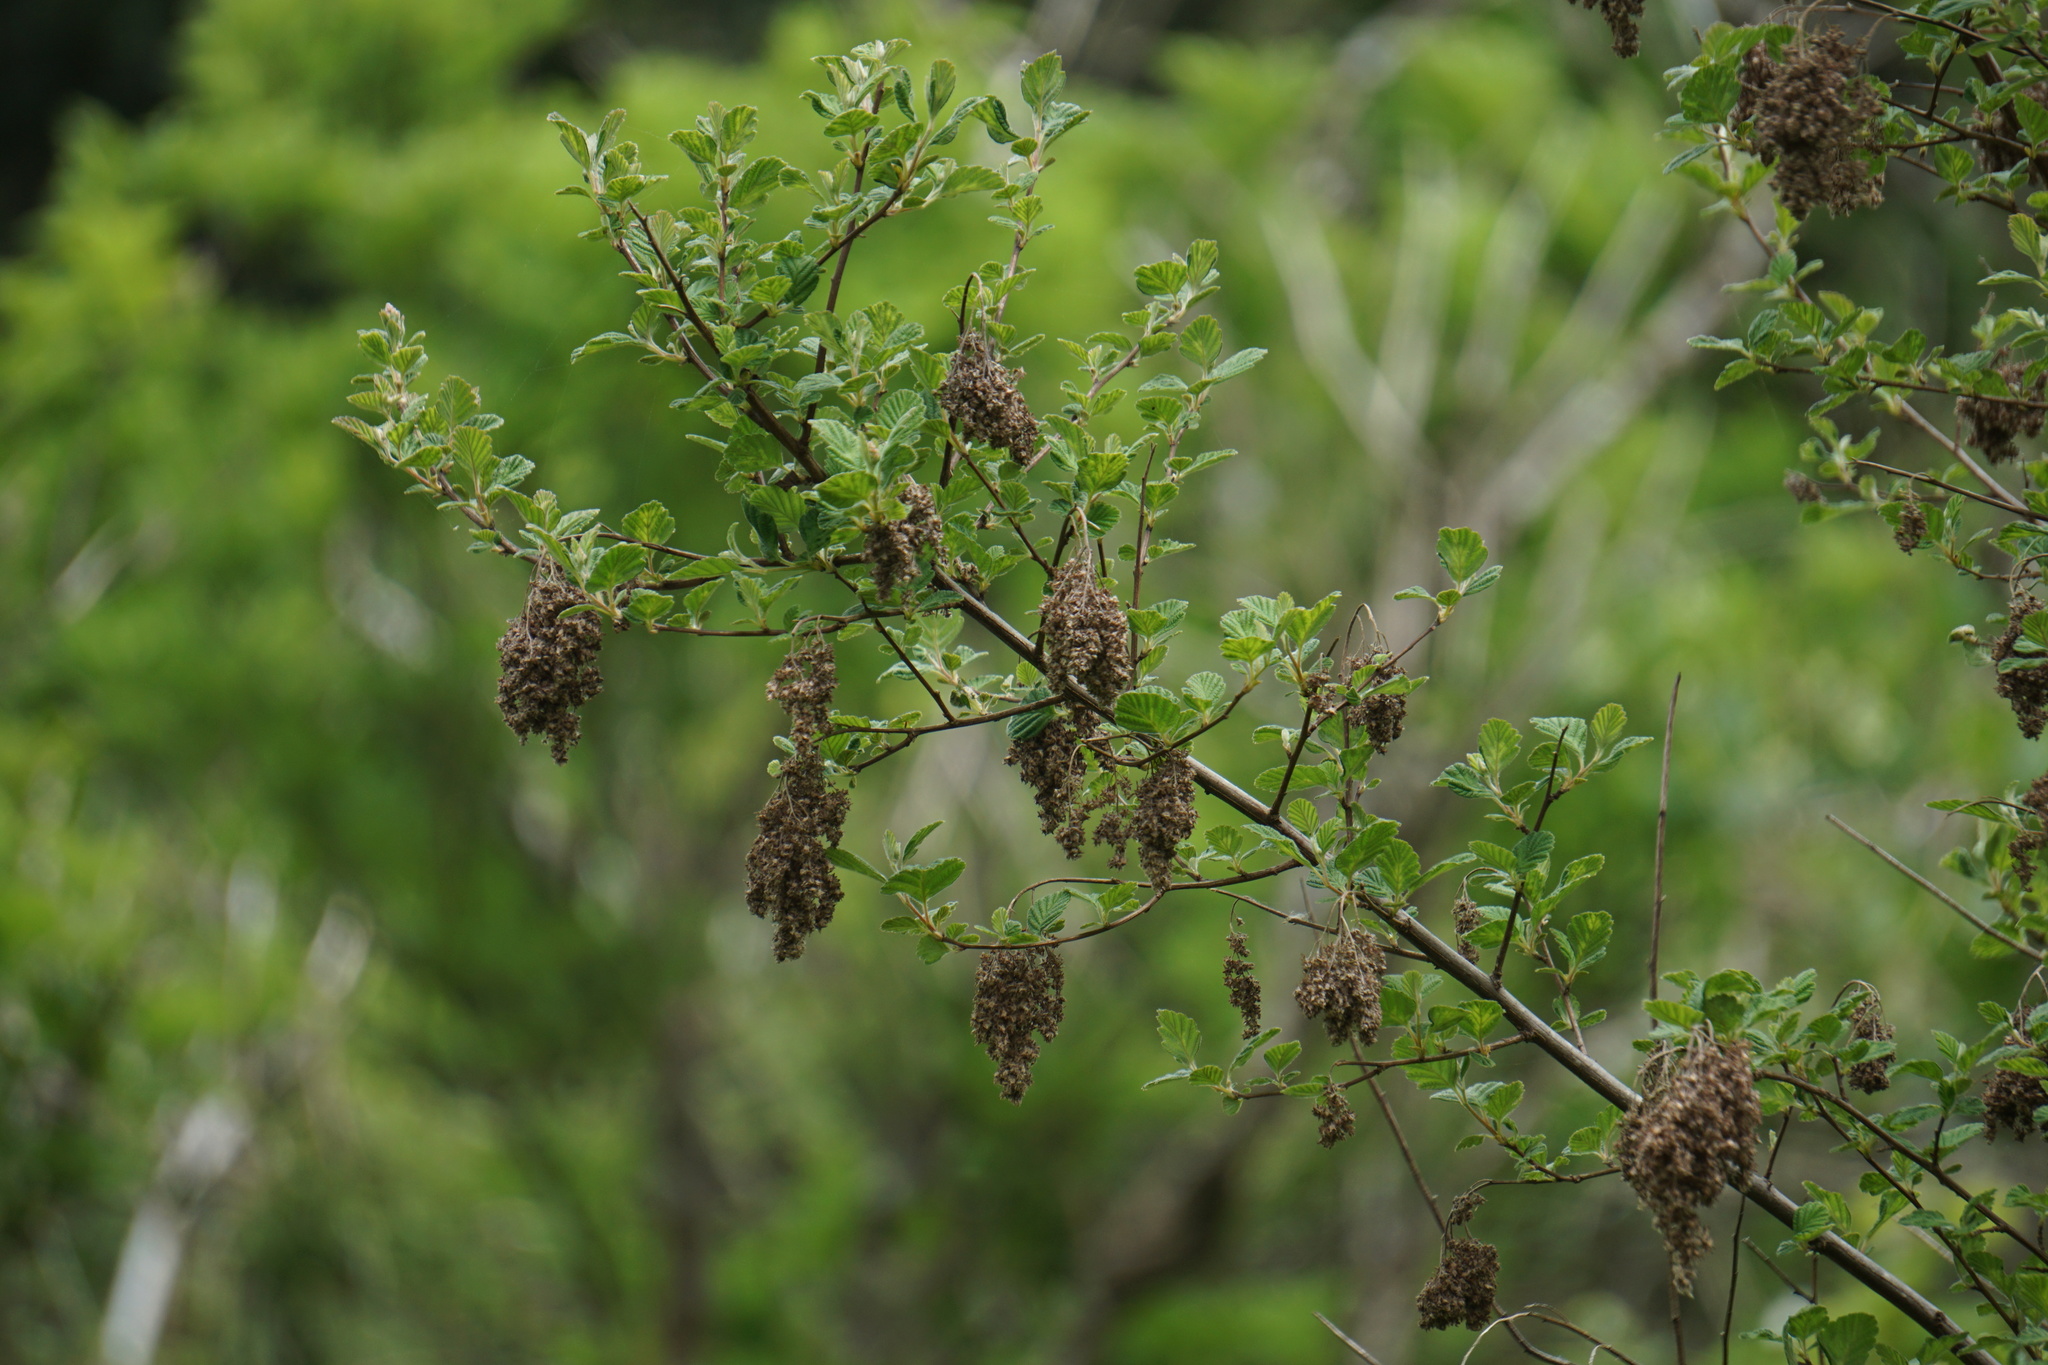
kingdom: Plantae
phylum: Tracheophyta
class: Magnoliopsida
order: Rosales
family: Rosaceae
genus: Holodiscus
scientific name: Holodiscus discolor
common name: Oceanspray
